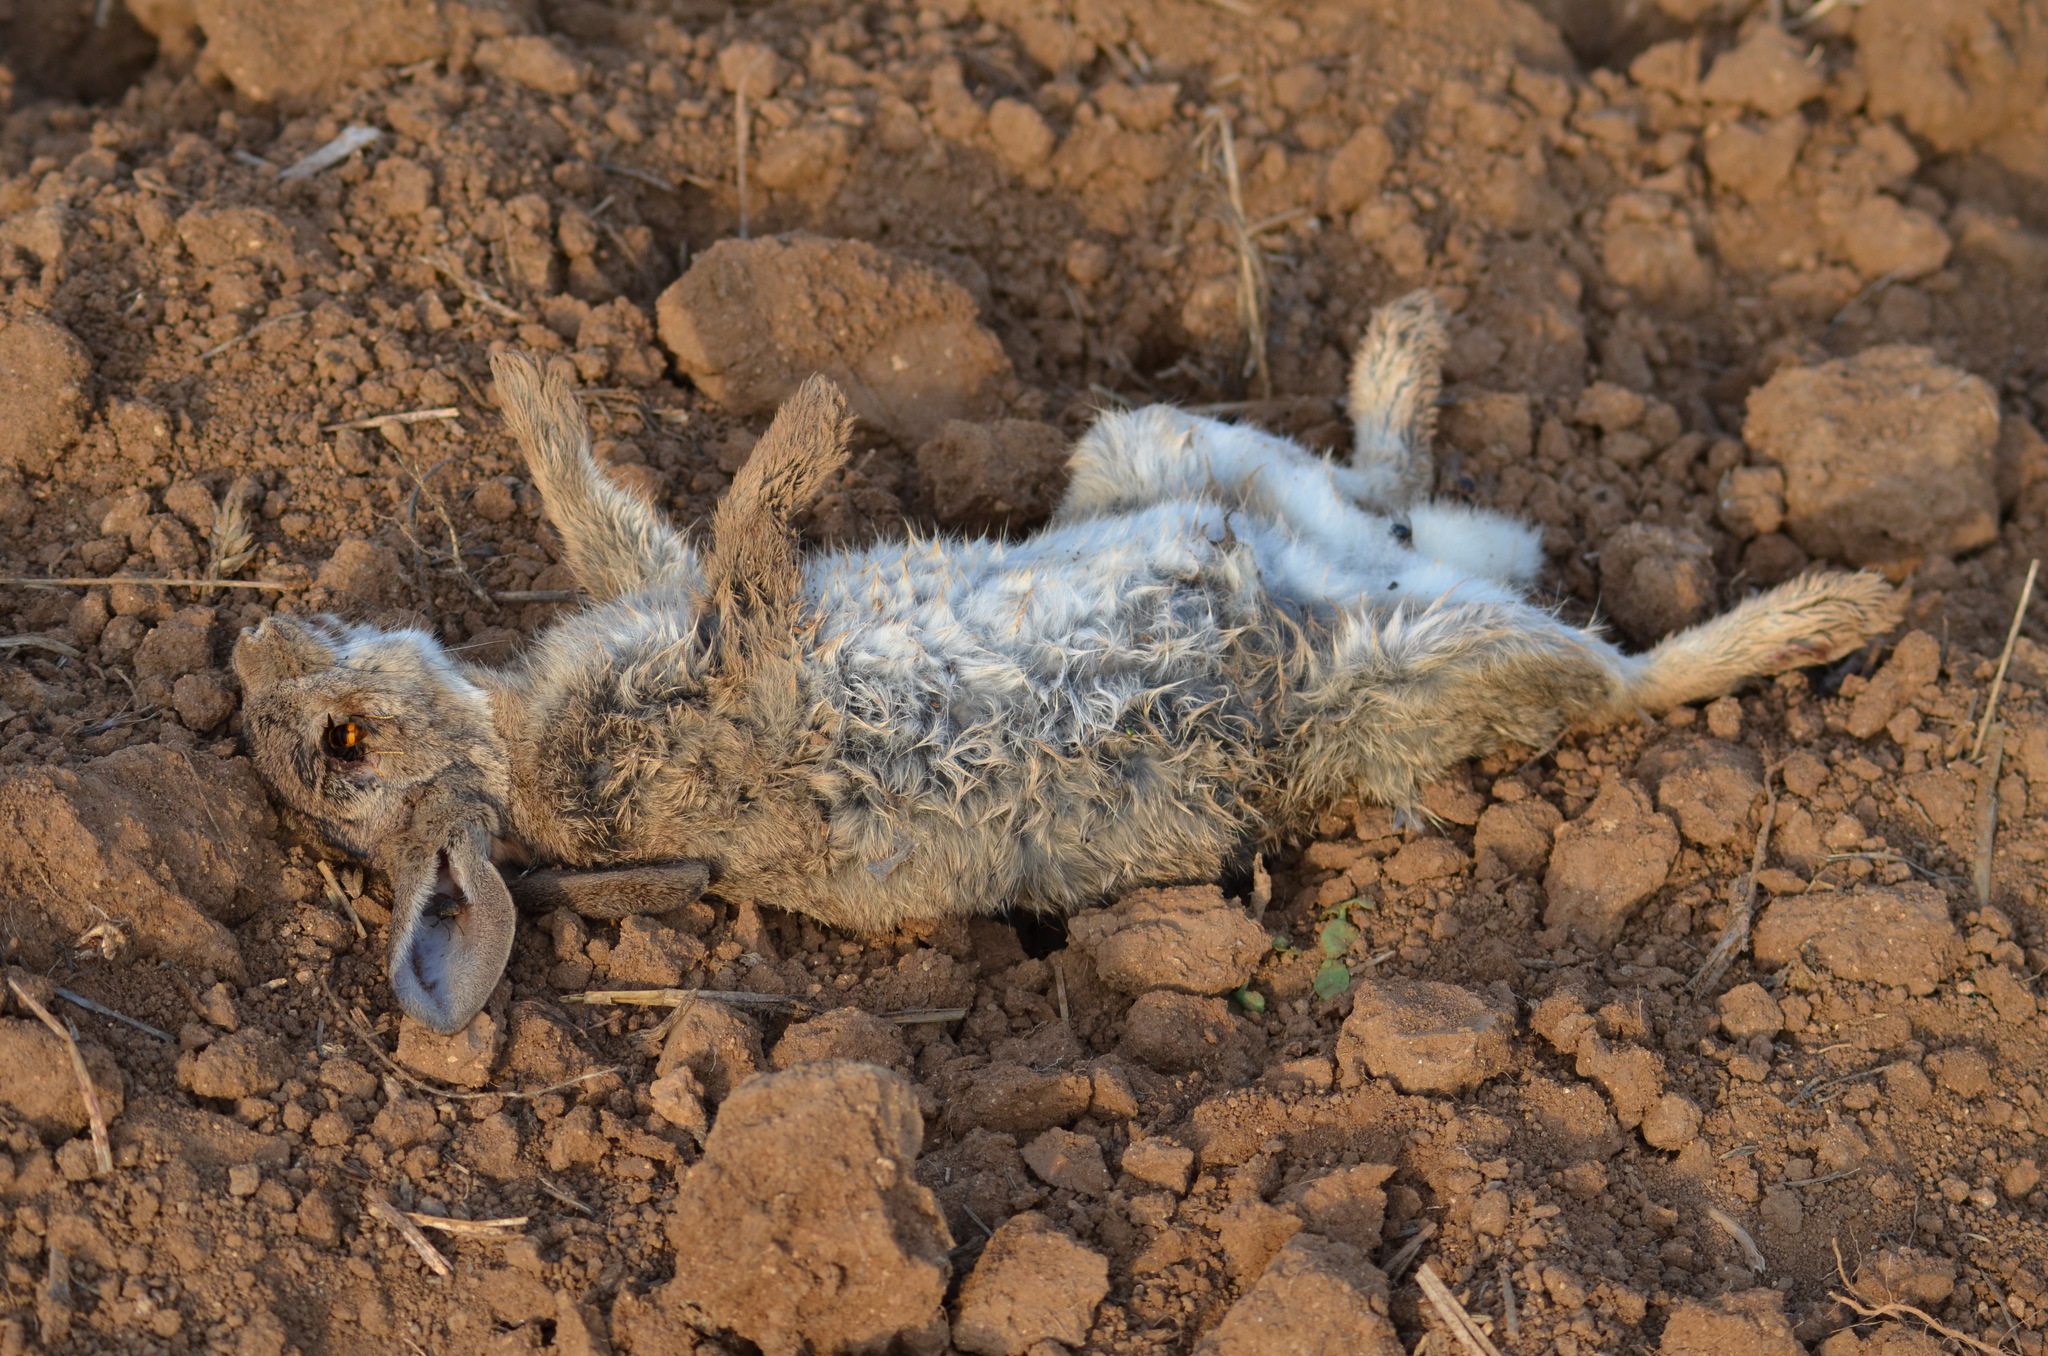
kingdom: Animalia
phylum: Chordata
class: Mammalia
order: Lagomorpha
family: Leporidae
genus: Oryctolagus
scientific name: Oryctolagus cuniculus
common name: European rabbit
